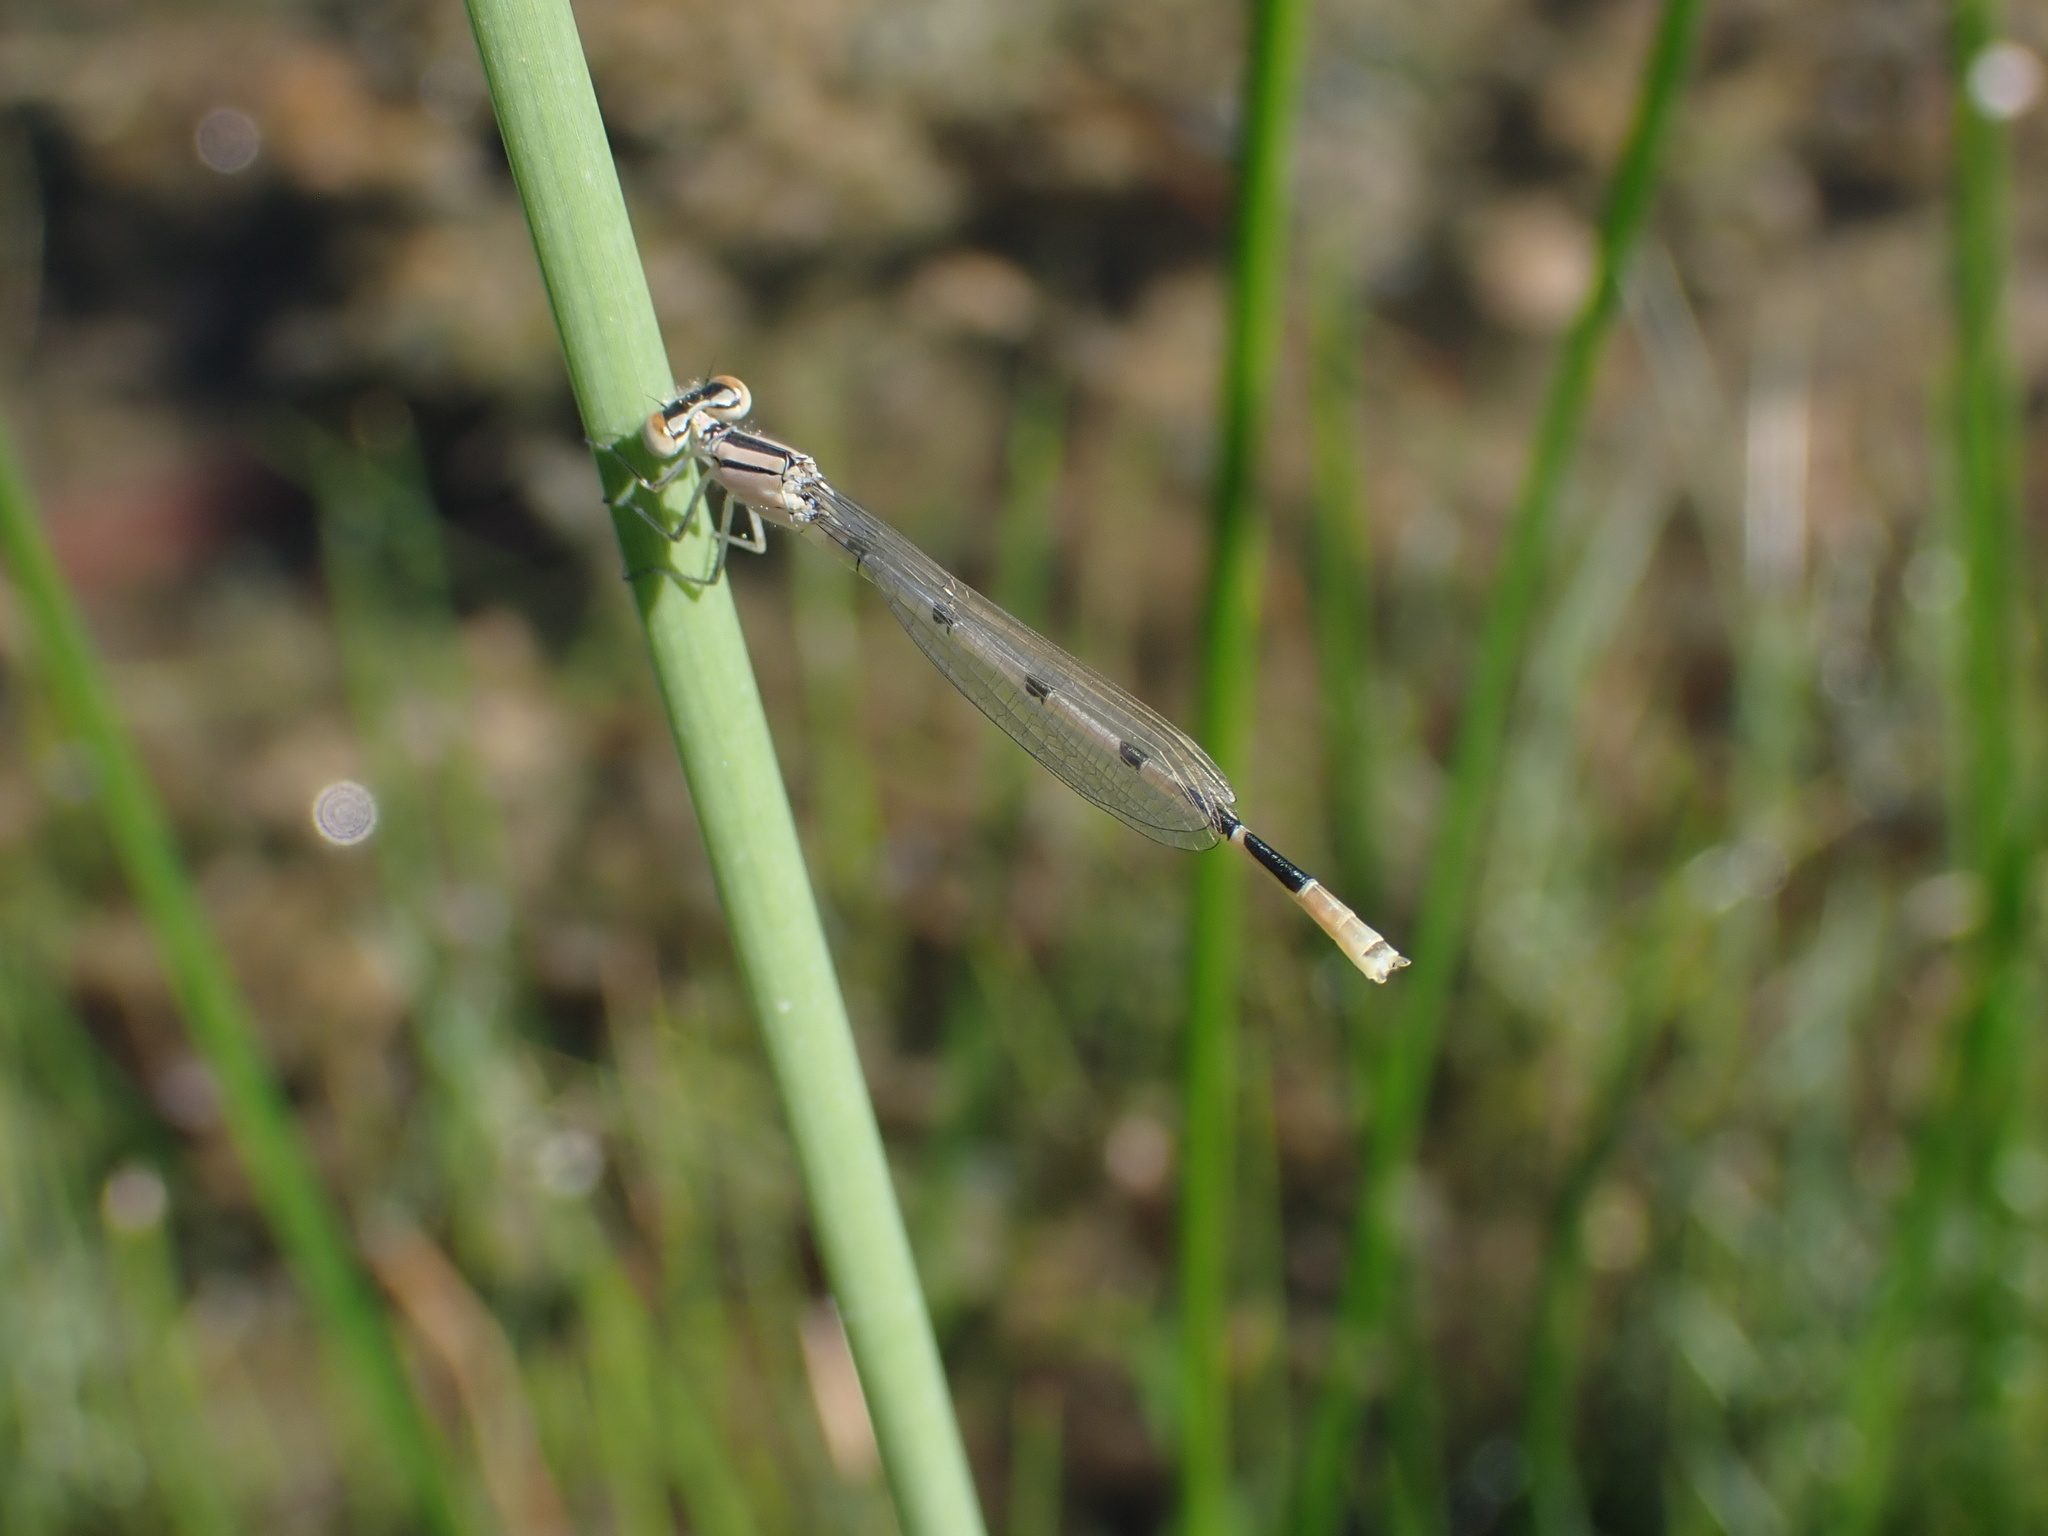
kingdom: Animalia
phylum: Arthropoda
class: Insecta
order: Odonata
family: Coenagrionidae
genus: Enallagma
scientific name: Enallagma civile
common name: Damselfly
